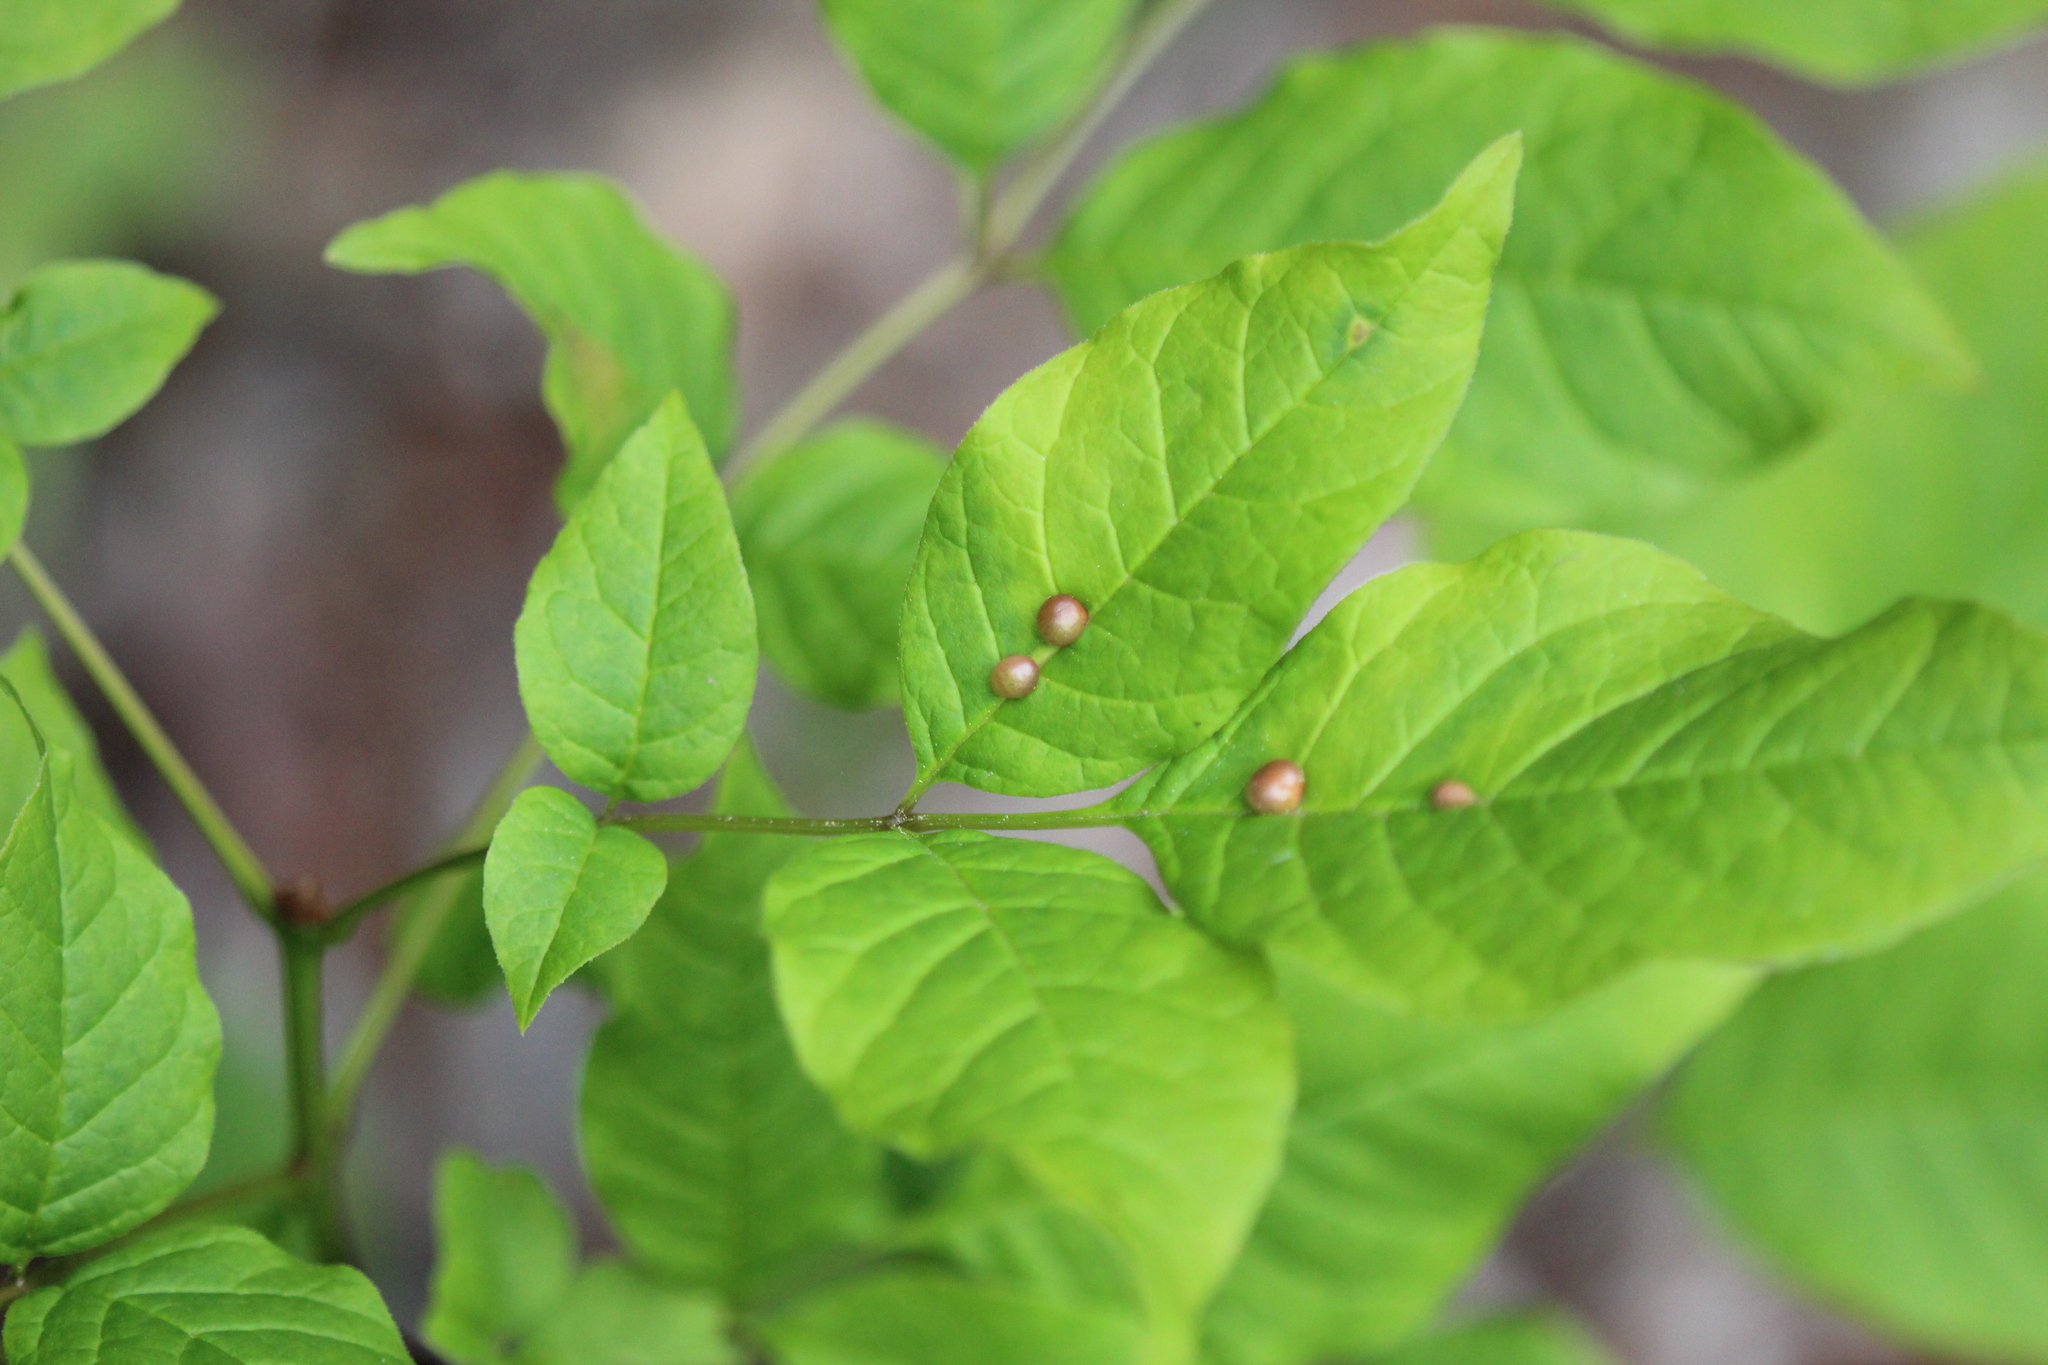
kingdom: Animalia
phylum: Arthropoda
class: Insecta
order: Diptera
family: Cecidomyiidae
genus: Dasineura
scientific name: Dasineura pellex
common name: Ash bullet gall midge
